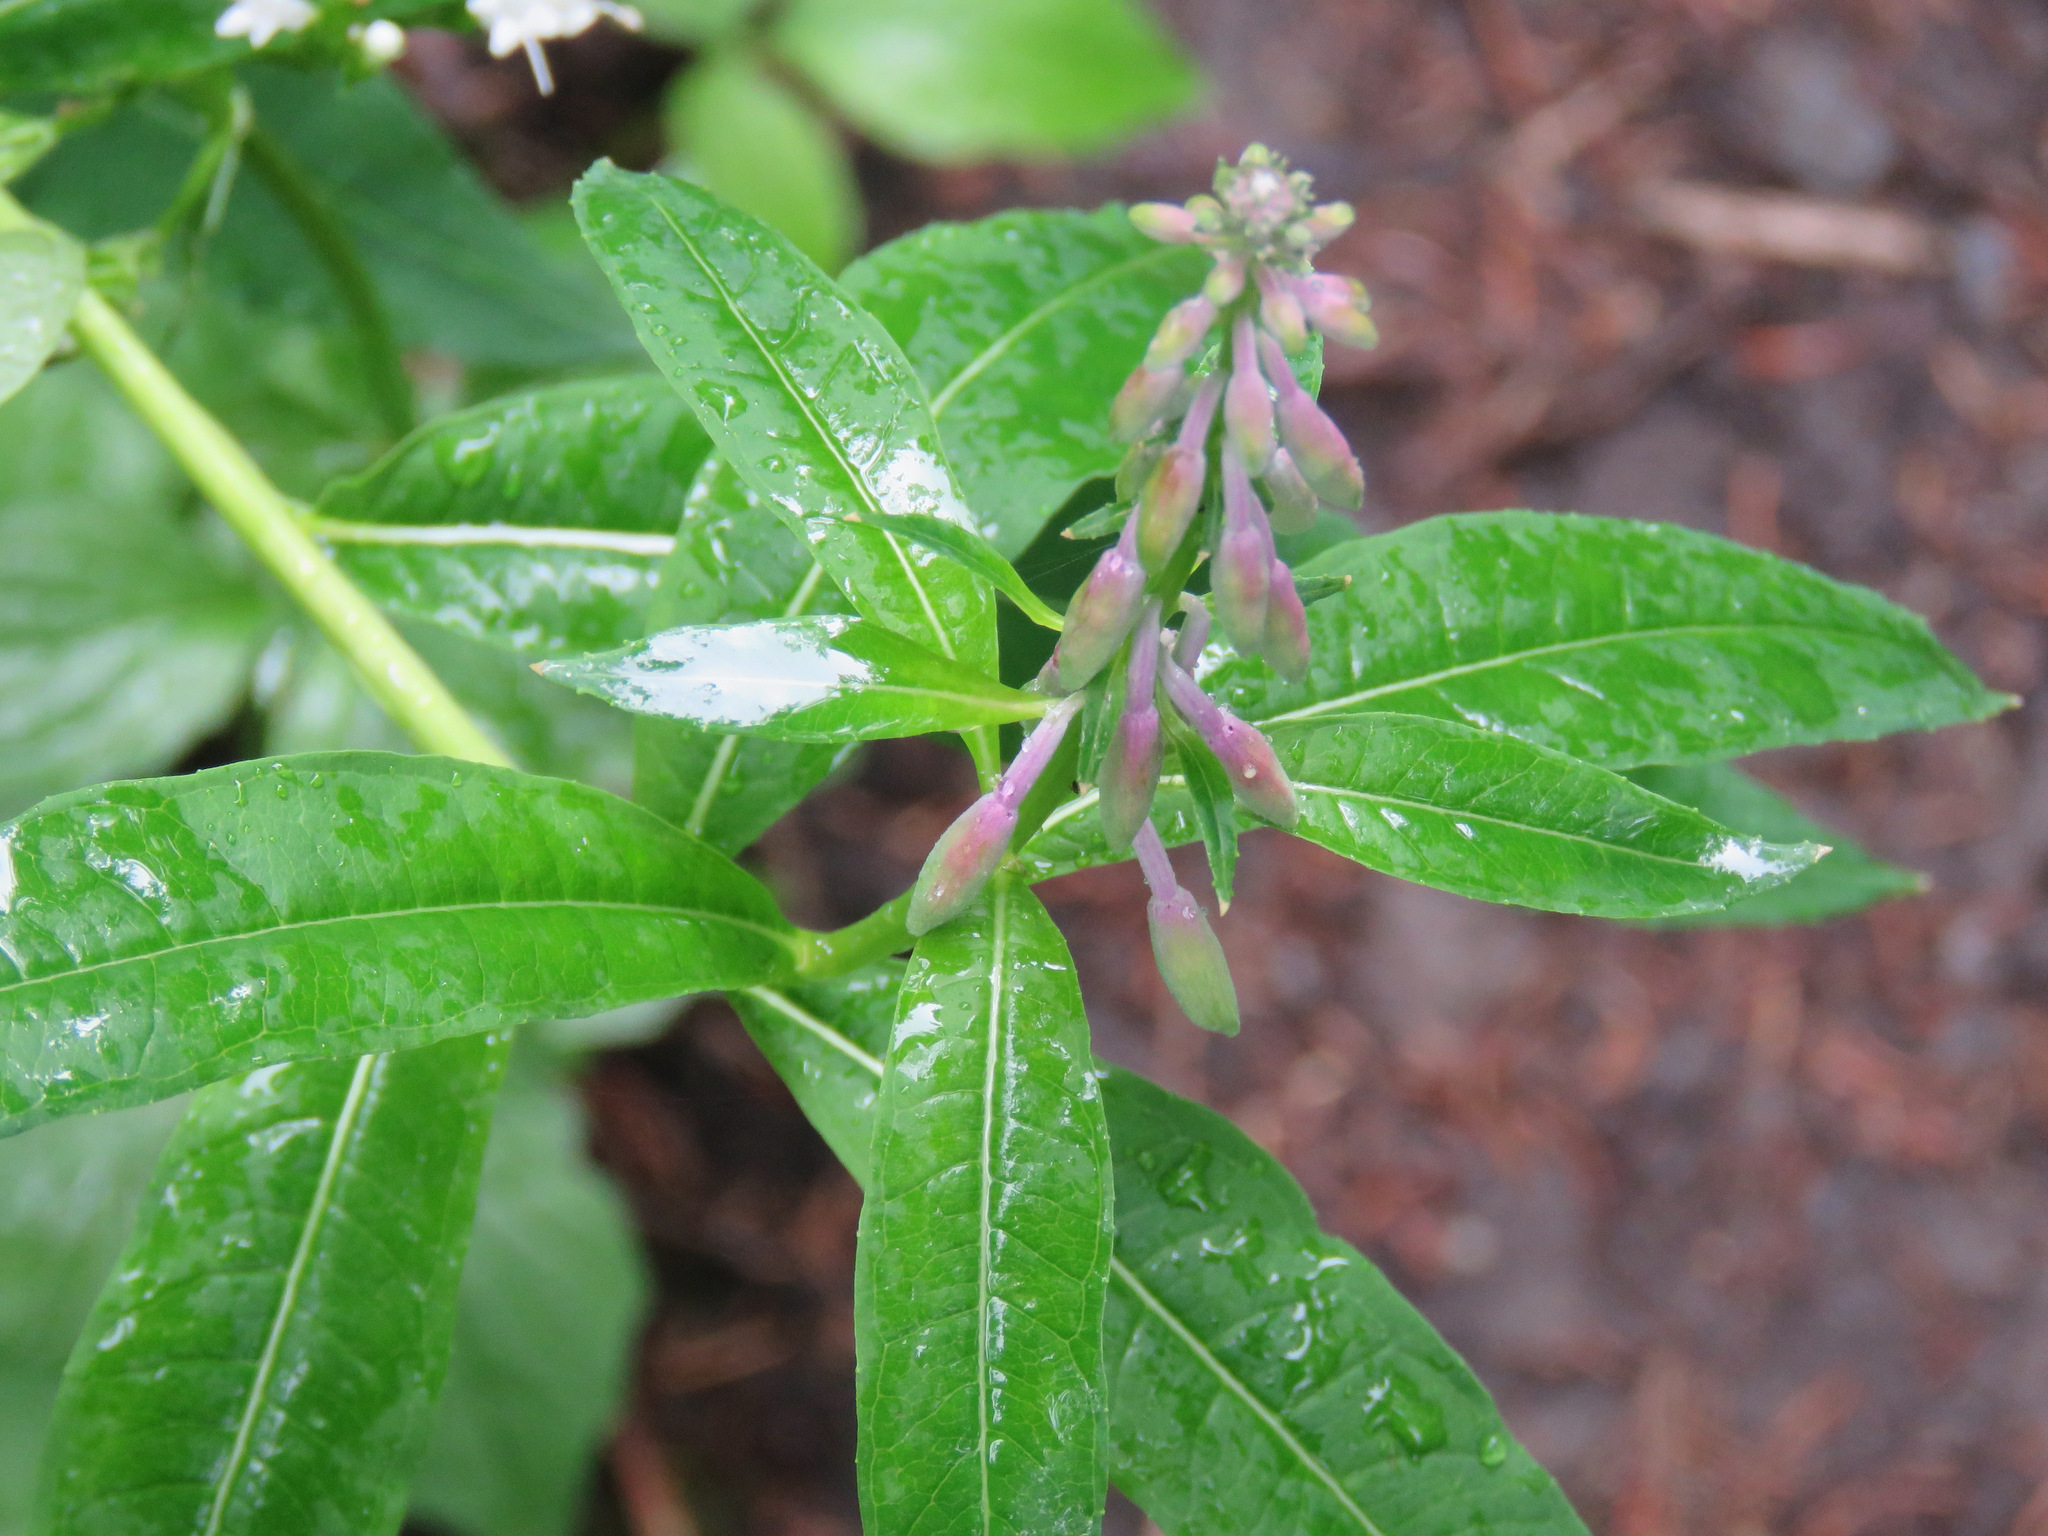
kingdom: Plantae
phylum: Tracheophyta
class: Magnoliopsida
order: Myrtales
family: Onagraceae
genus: Chamaenerion
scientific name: Chamaenerion angustifolium
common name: Fireweed
